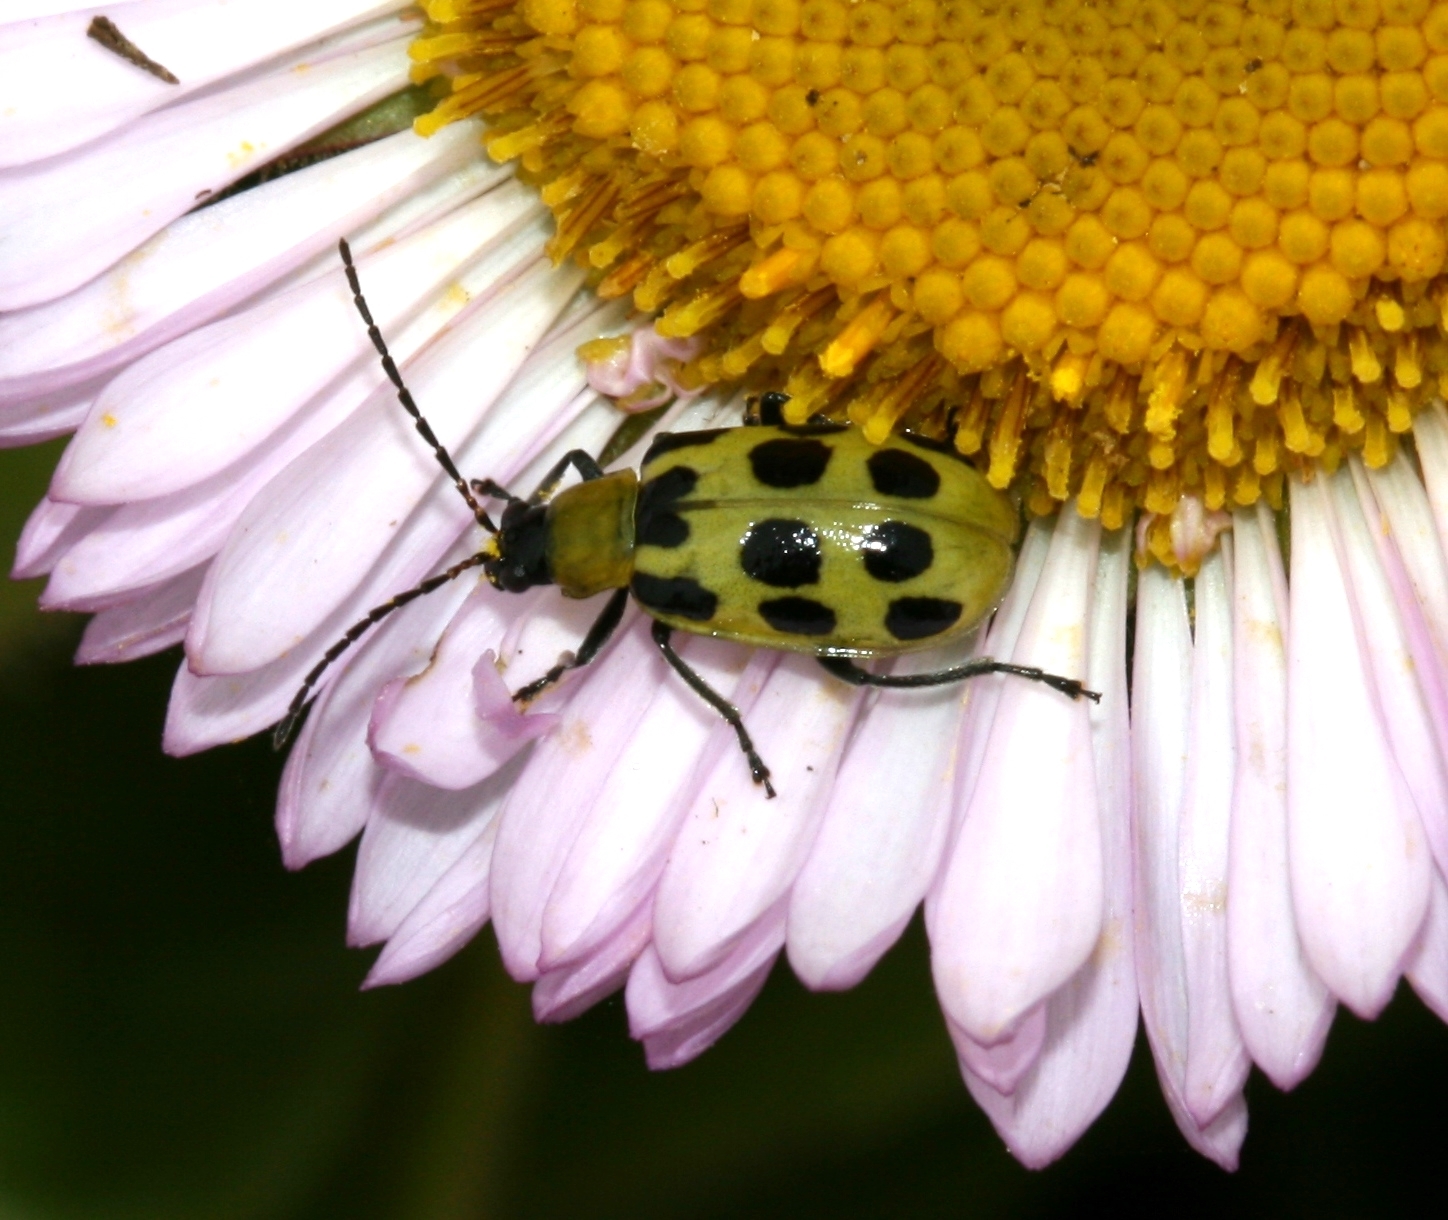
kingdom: Animalia
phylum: Arthropoda
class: Insecta
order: Coleoptera
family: Chrysomelidae
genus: Diabrotica
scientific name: Diabrotica undecimpunctata
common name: Spotted cucumber beetle
